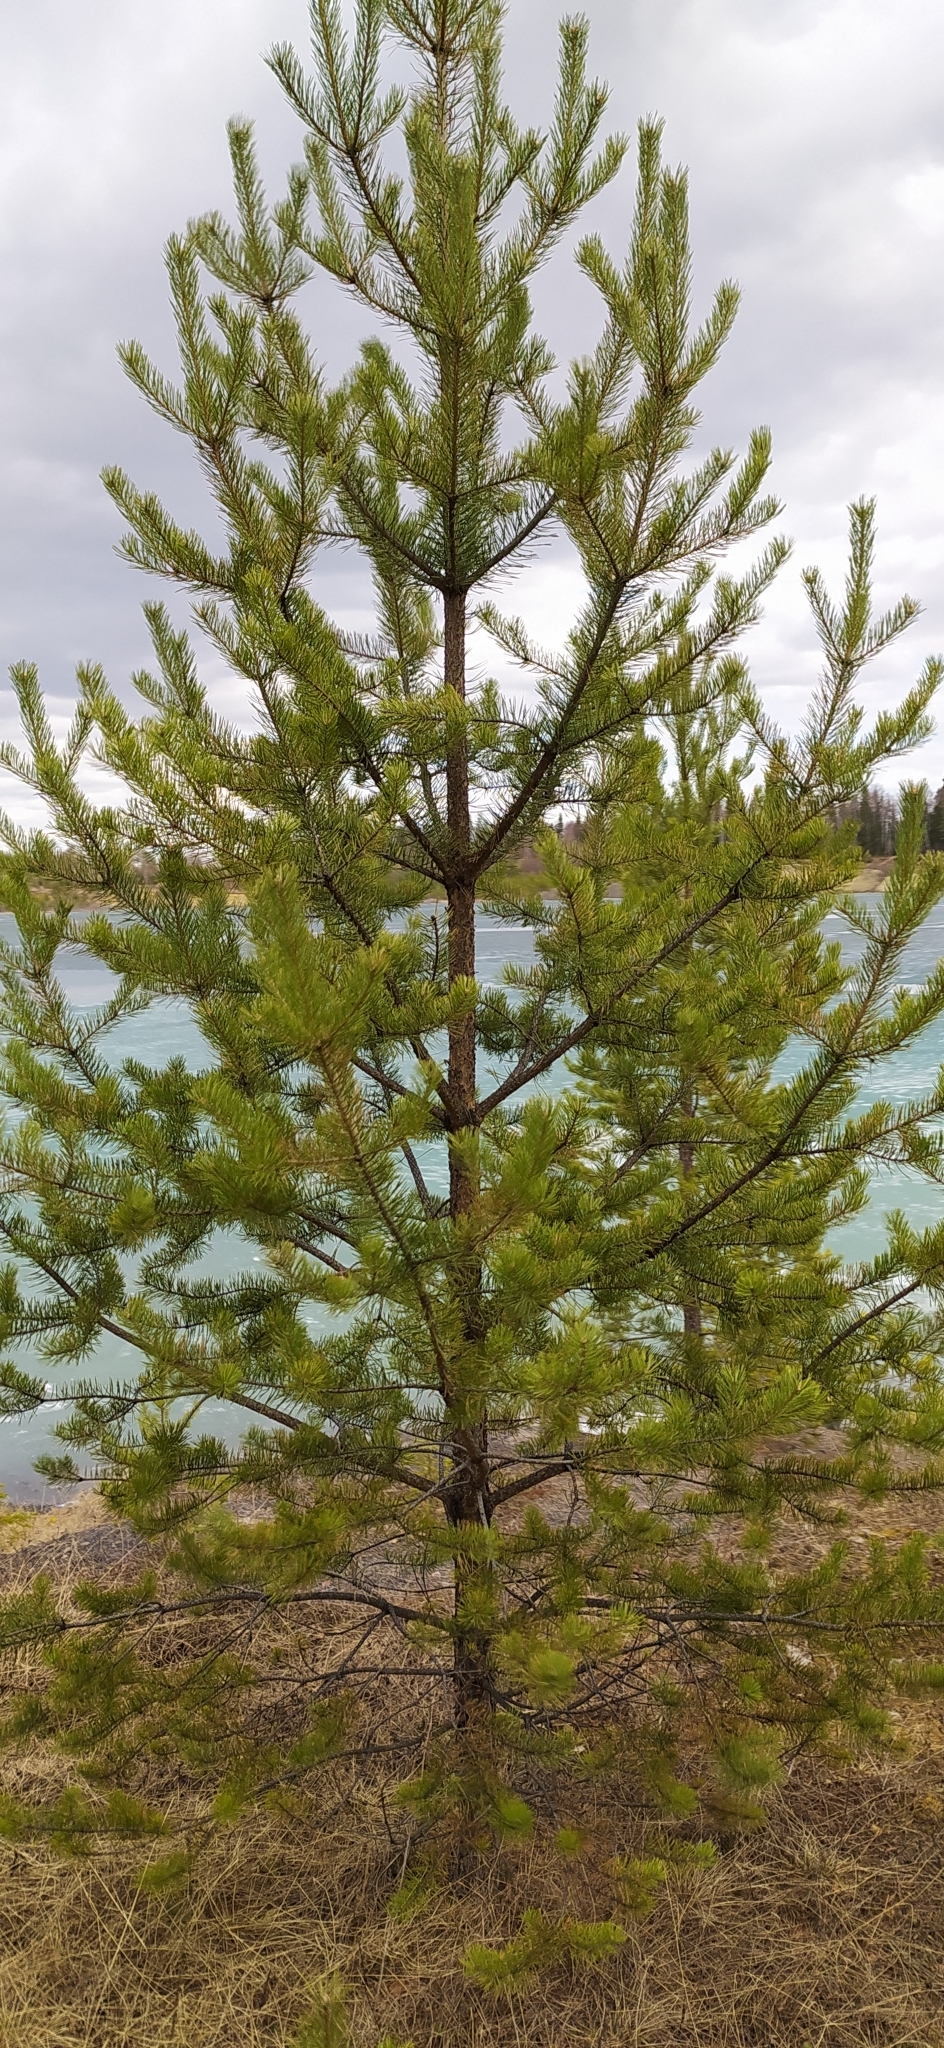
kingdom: Plantae
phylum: Tracheophyta
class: Pinopsida
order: Pinales
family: Pinaceae
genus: Pinus
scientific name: Pinus sylvestris
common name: Scots pine
